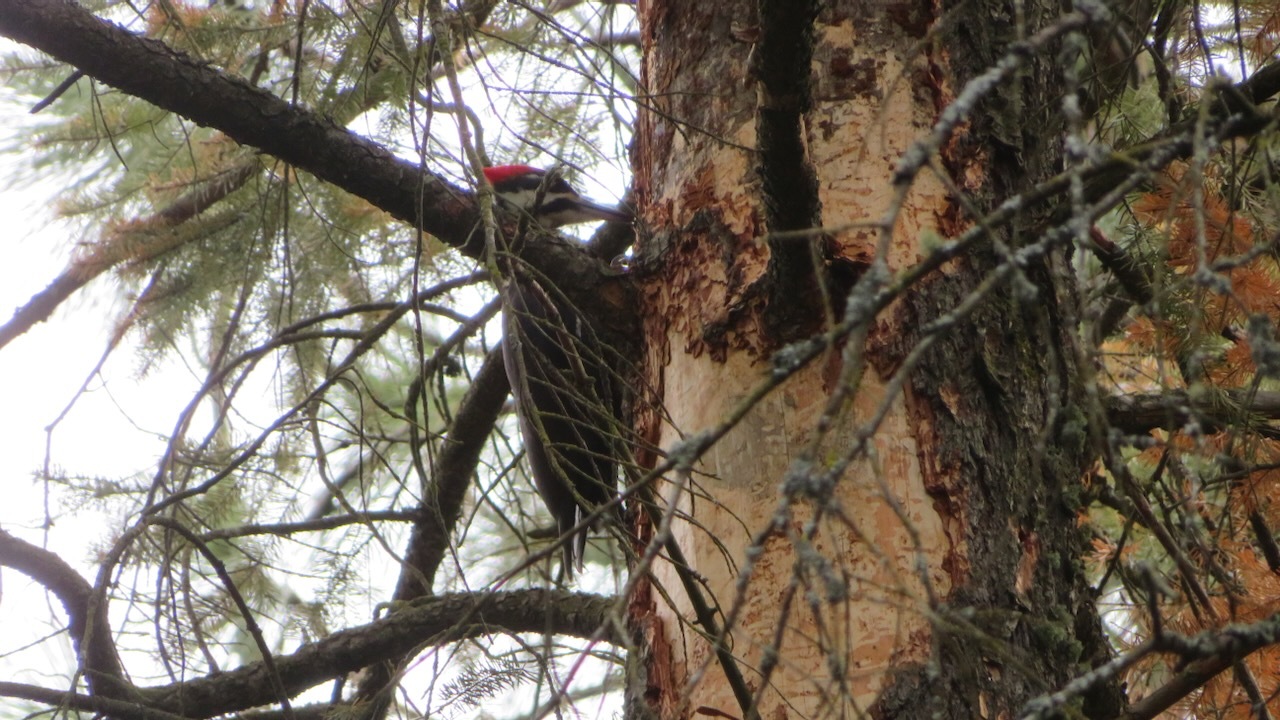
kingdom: Animalia
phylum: Chordata
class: Aves
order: Piciformes
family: Picidae
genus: Dryocopus
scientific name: Dryocopus pileatus
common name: Pileated woodpecker
